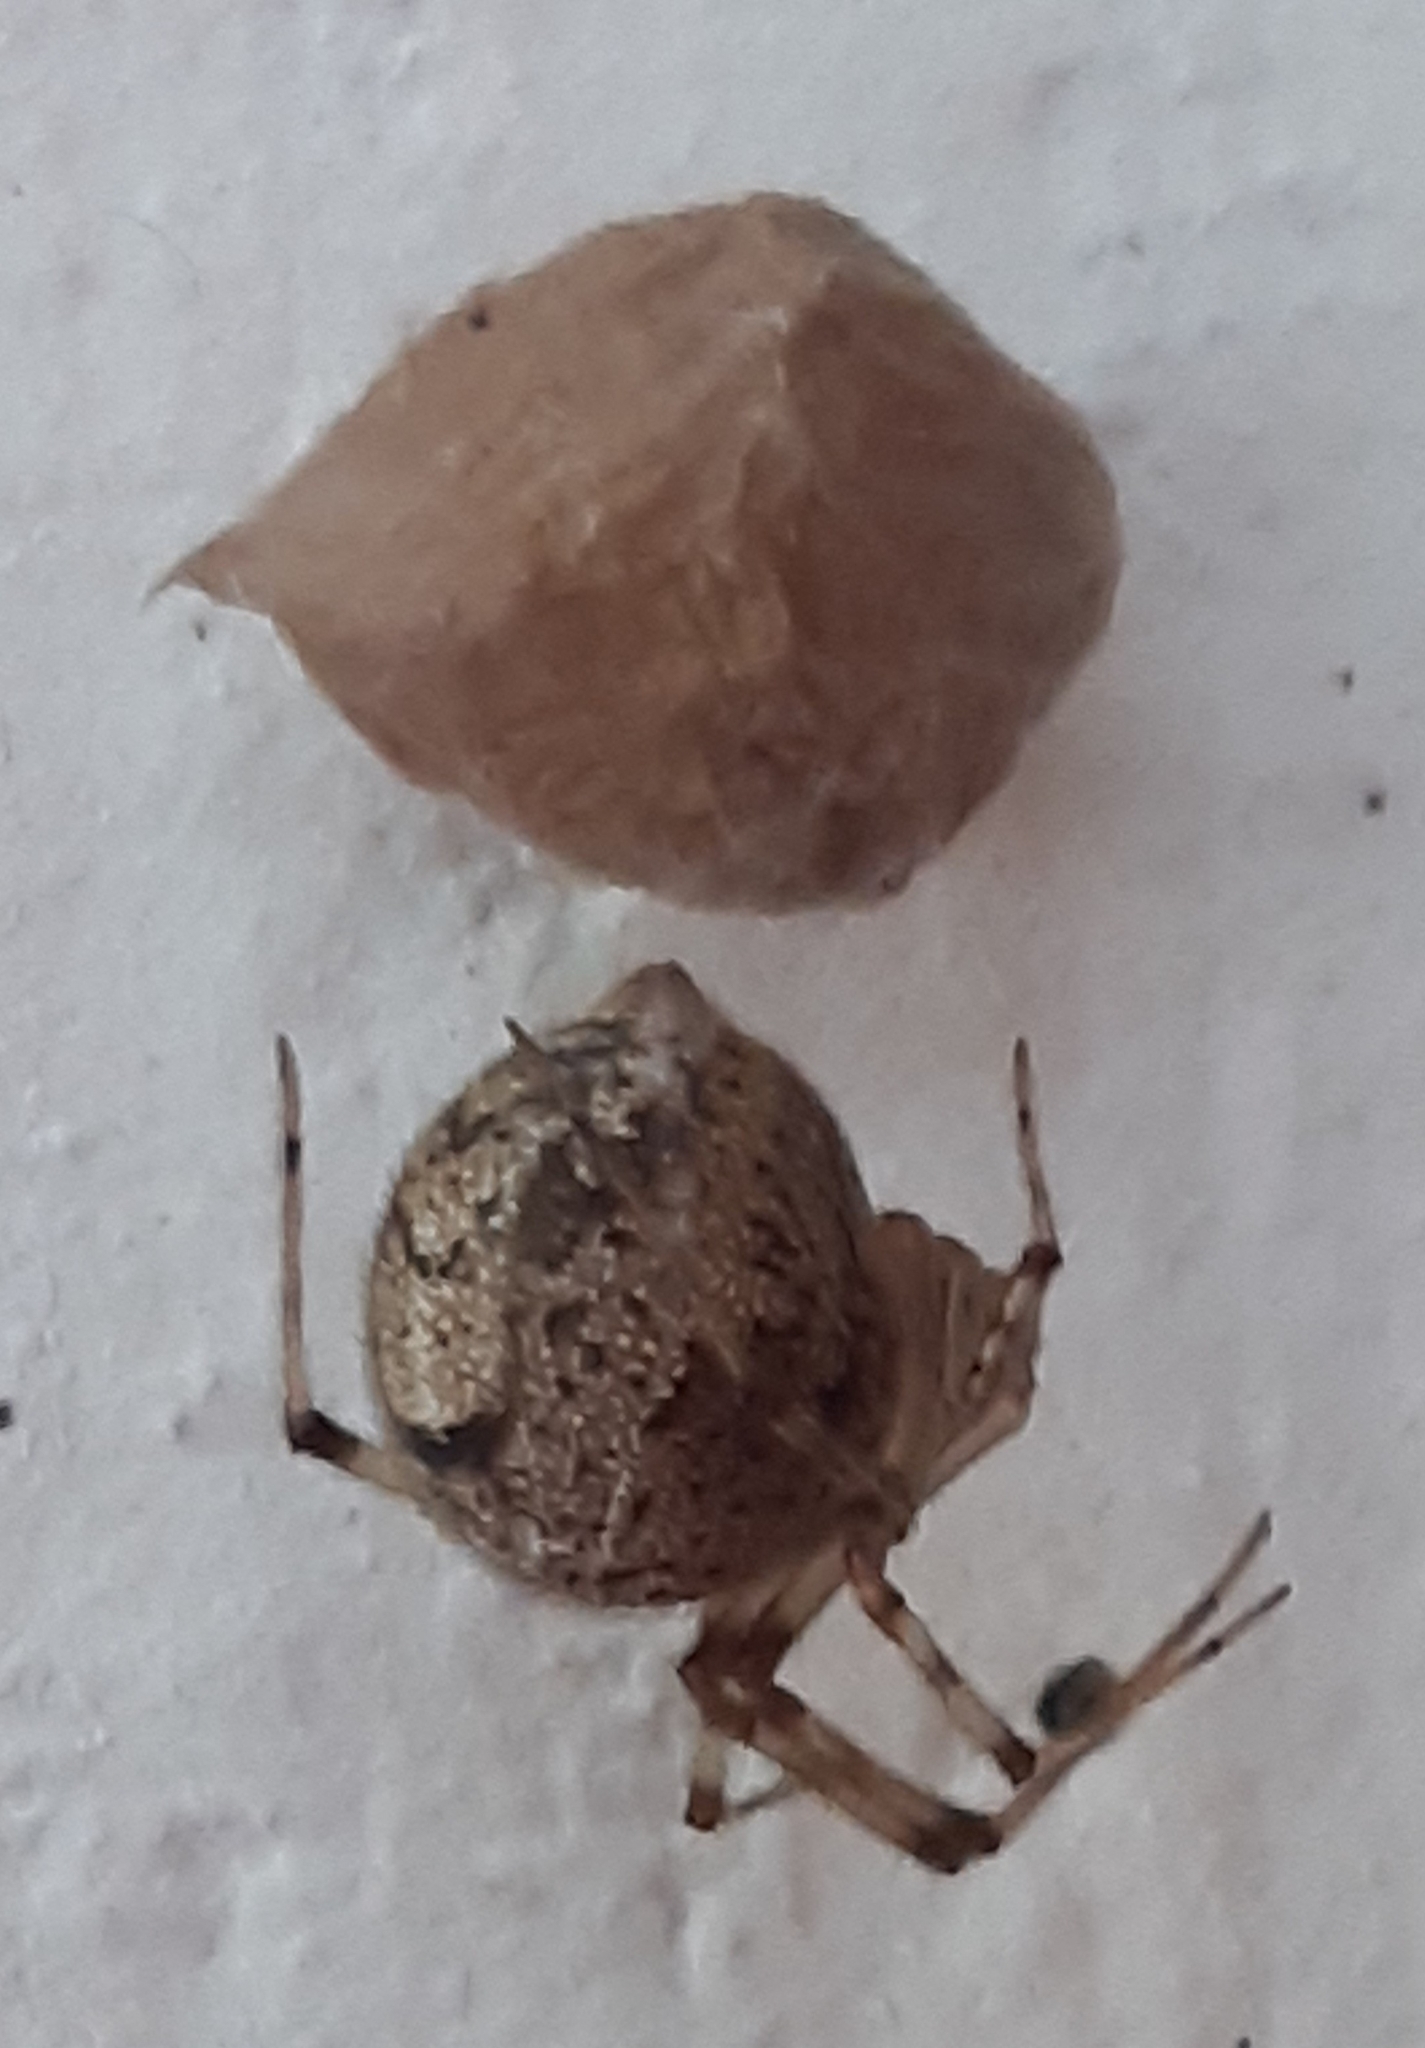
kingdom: Animalia
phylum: Arthropoda
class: Arachnida
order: Araneae
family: Theridiidae
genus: Parasteatoda
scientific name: Parasteatoda tepidariorum
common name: Common house spider
